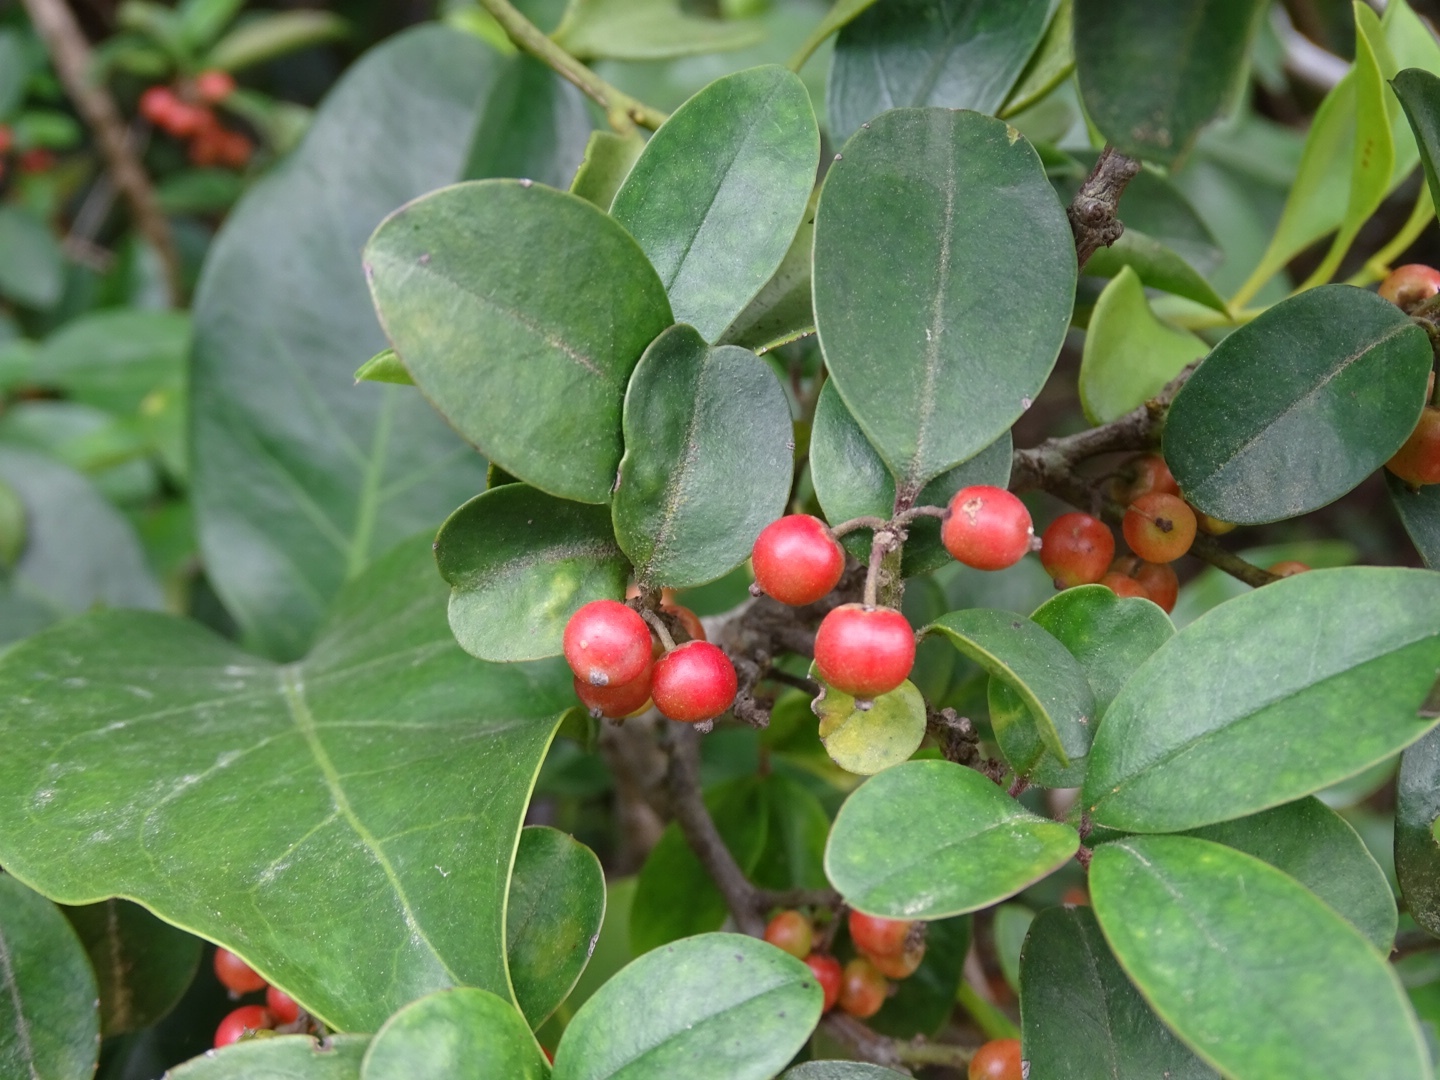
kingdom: Plantae
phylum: Tracheophyta
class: Magnoliopsida
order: Aquifoliales
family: Aquifoliaceae
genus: Ilex
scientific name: Ilex rotunda
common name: Kurogane holly
